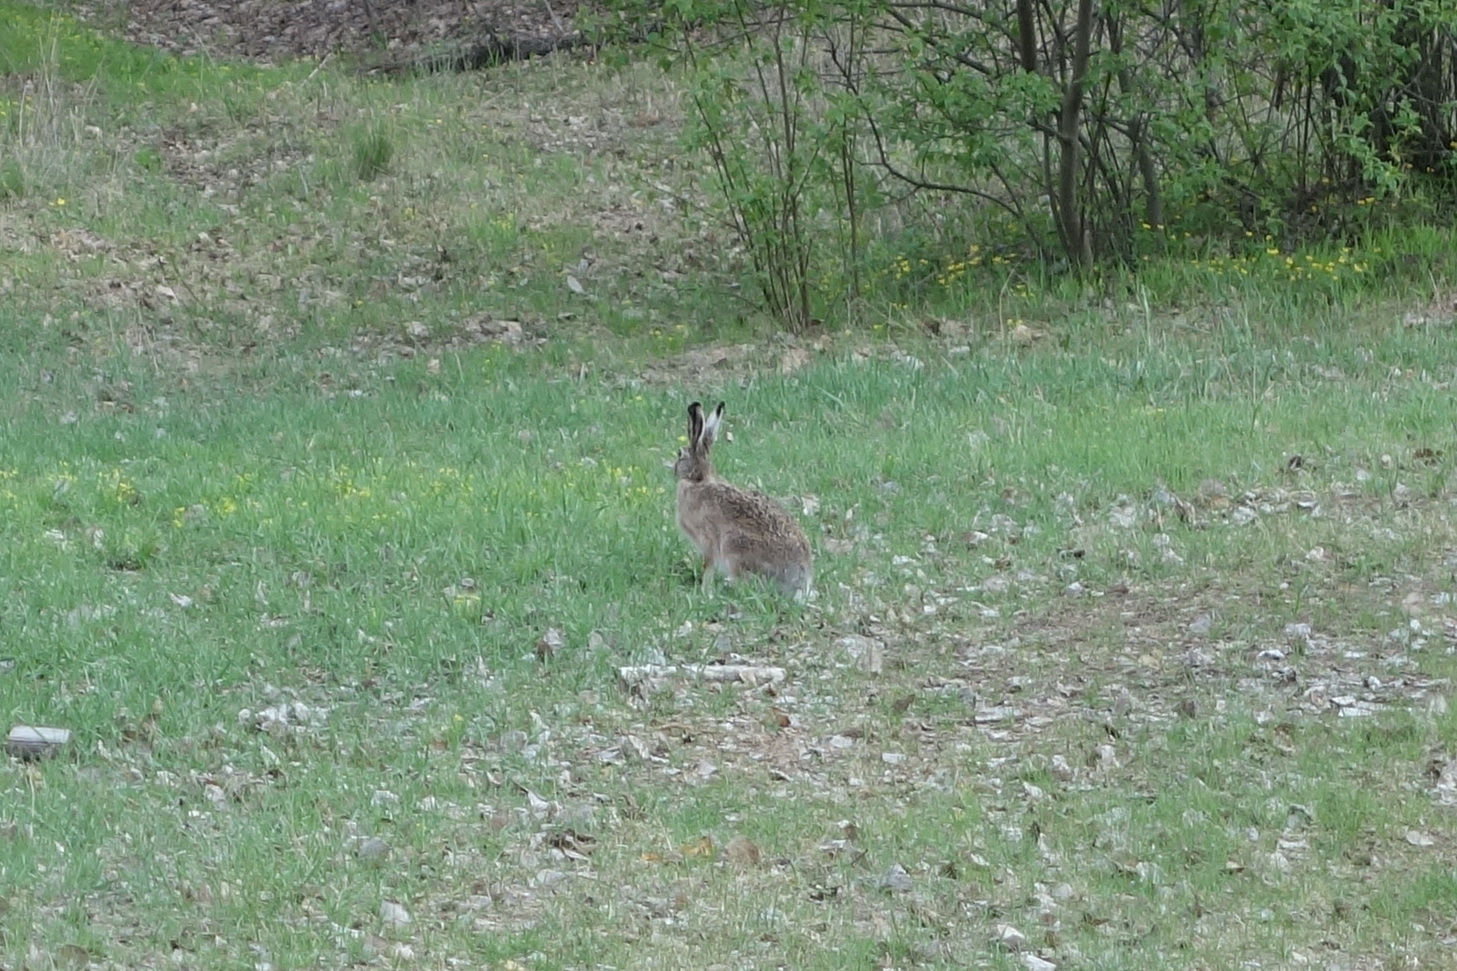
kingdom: Animalia
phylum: Chordata
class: Mammalia
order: Lagomorpha
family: Leporidae
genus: Lepus
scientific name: Lepus europaeus
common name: European hare
